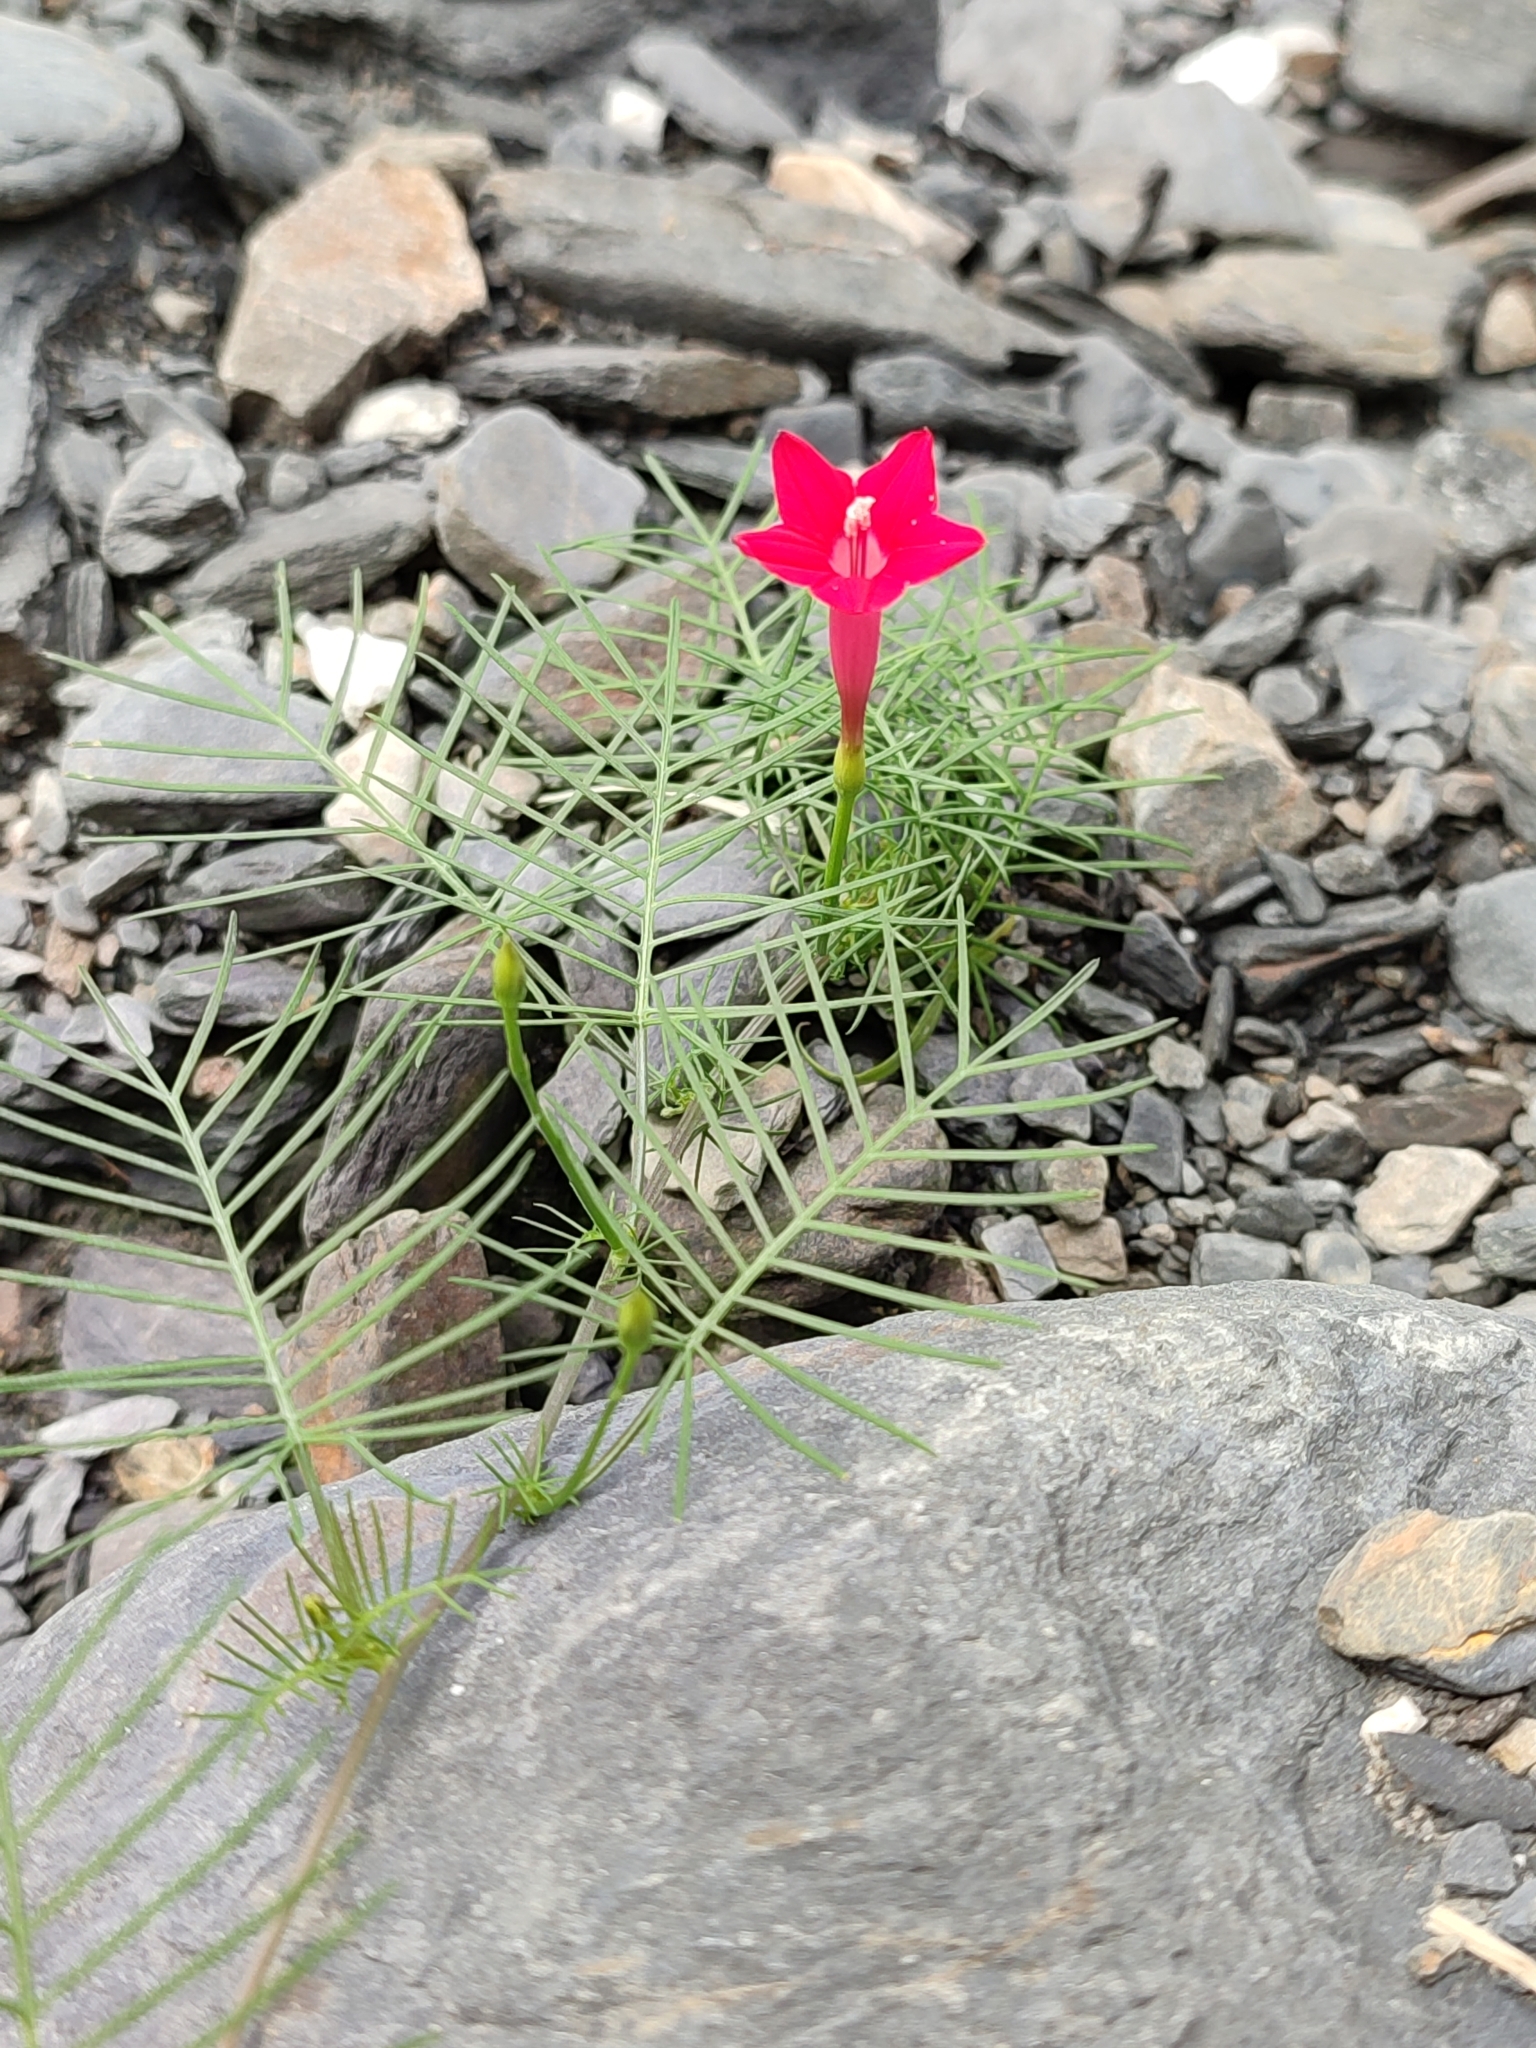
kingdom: Plantae
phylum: Tracheophyta
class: Magnoliopsida
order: Solanales
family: Convolvulaceae
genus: Ipomoea
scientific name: Ipomoea quamoclit
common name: Cypress vine
